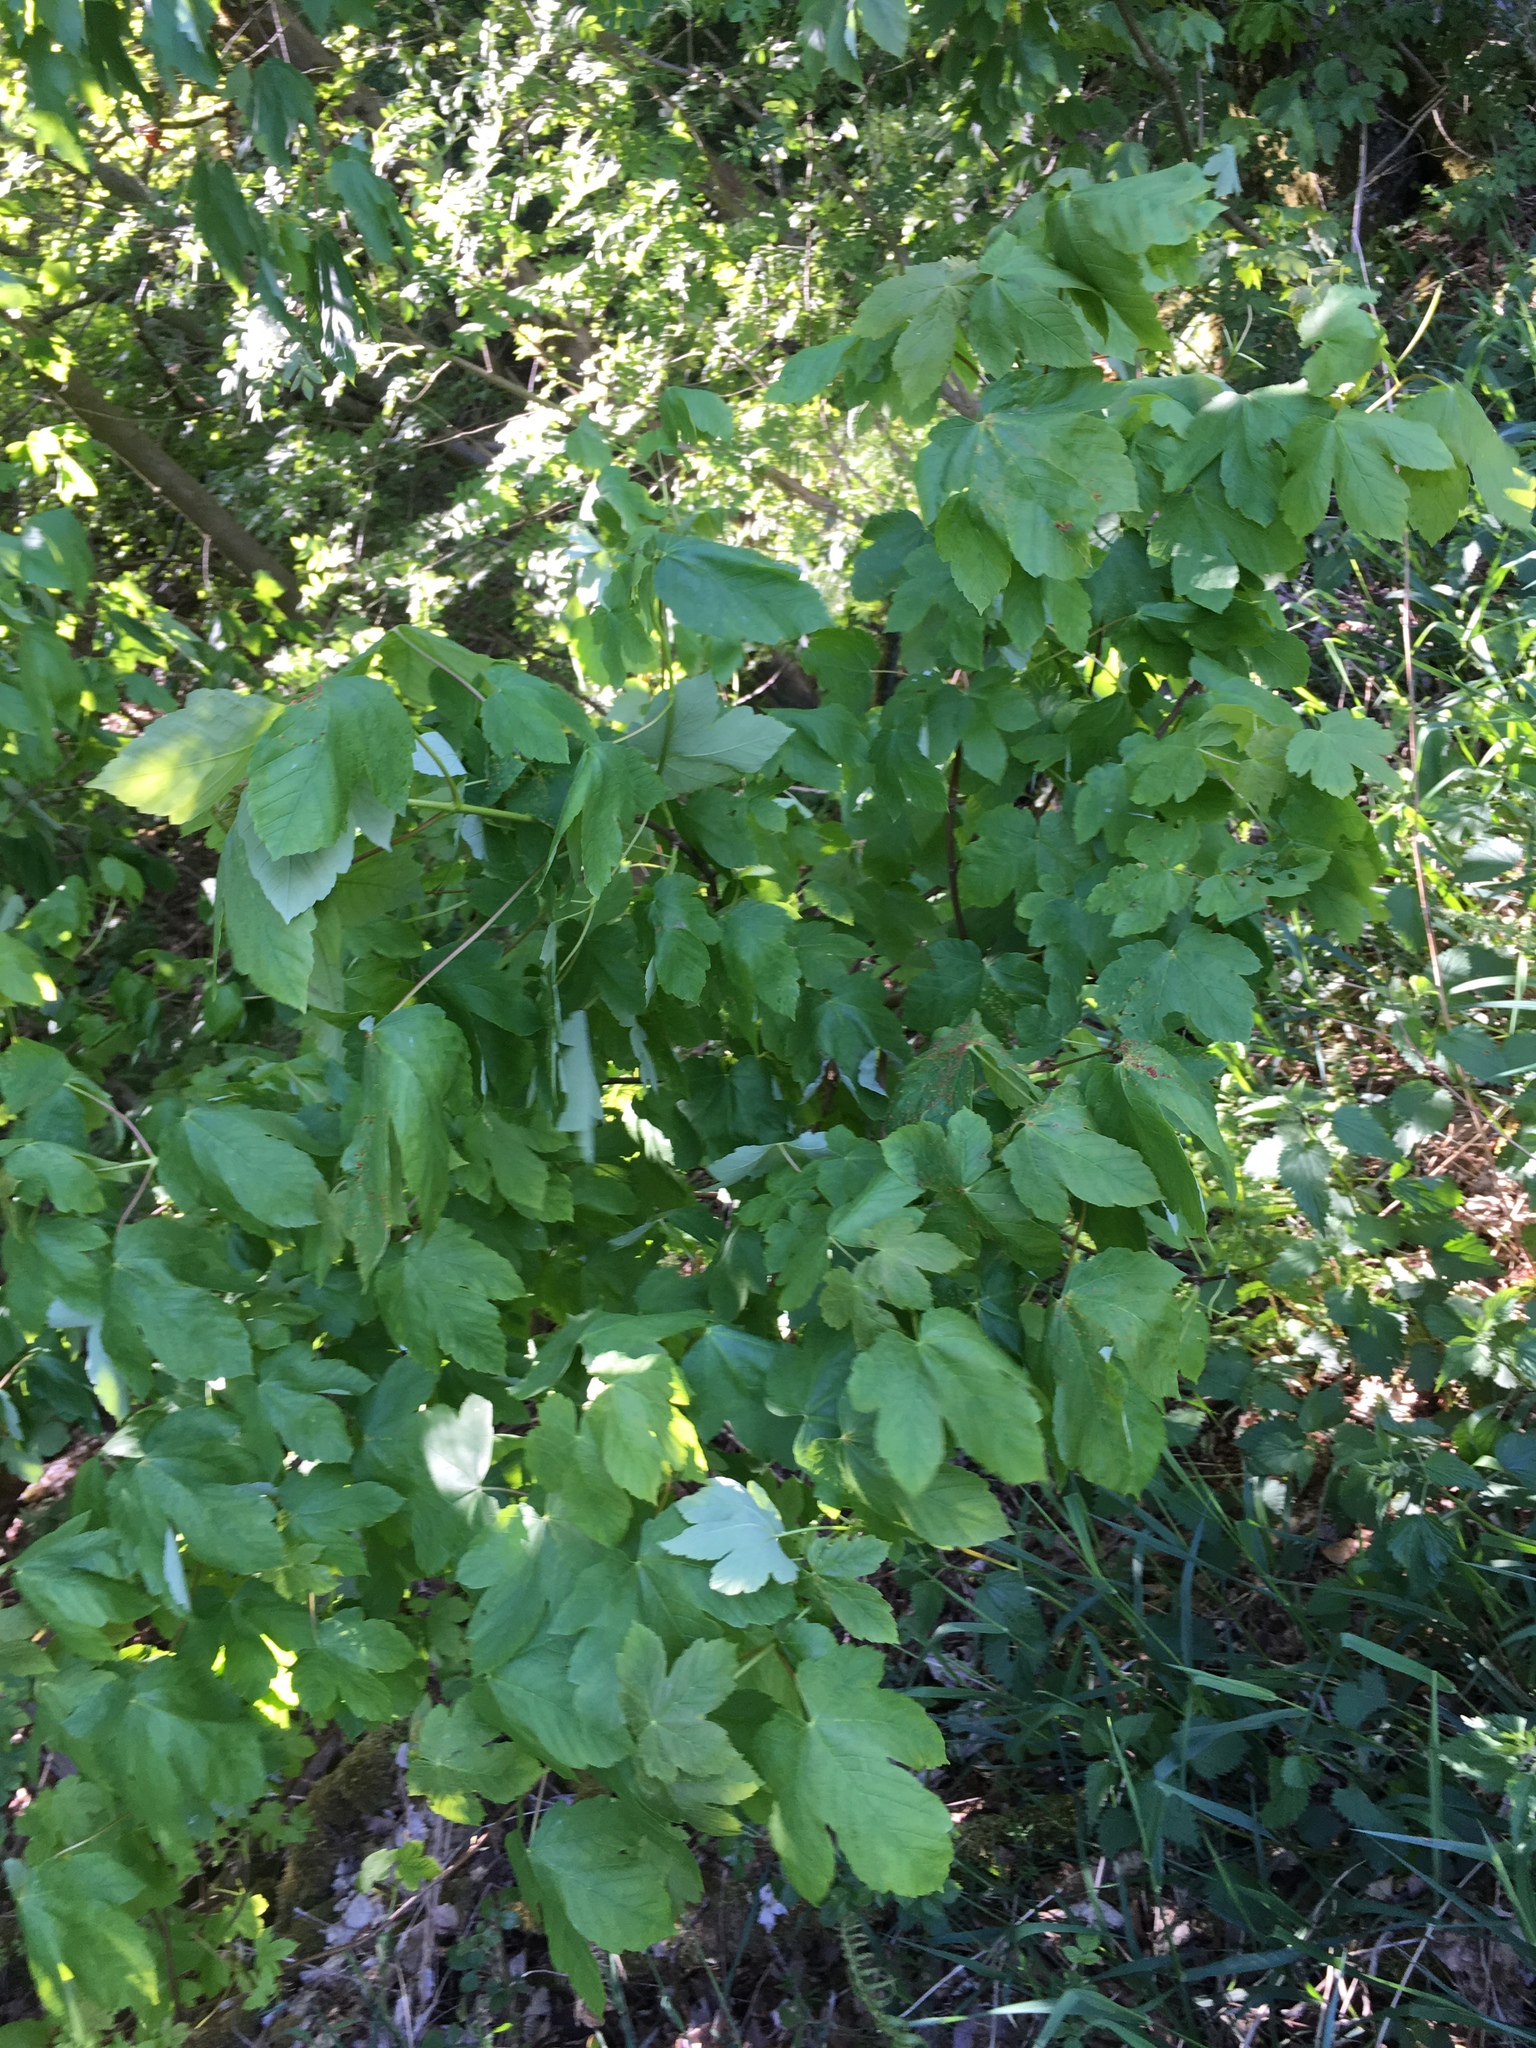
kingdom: Plantae
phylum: Tracheophyta
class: Magnoliopsida
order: Sapindales
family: Sapindaceae
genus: Acer
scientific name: Acer pseudoplatanus
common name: Sycamore
